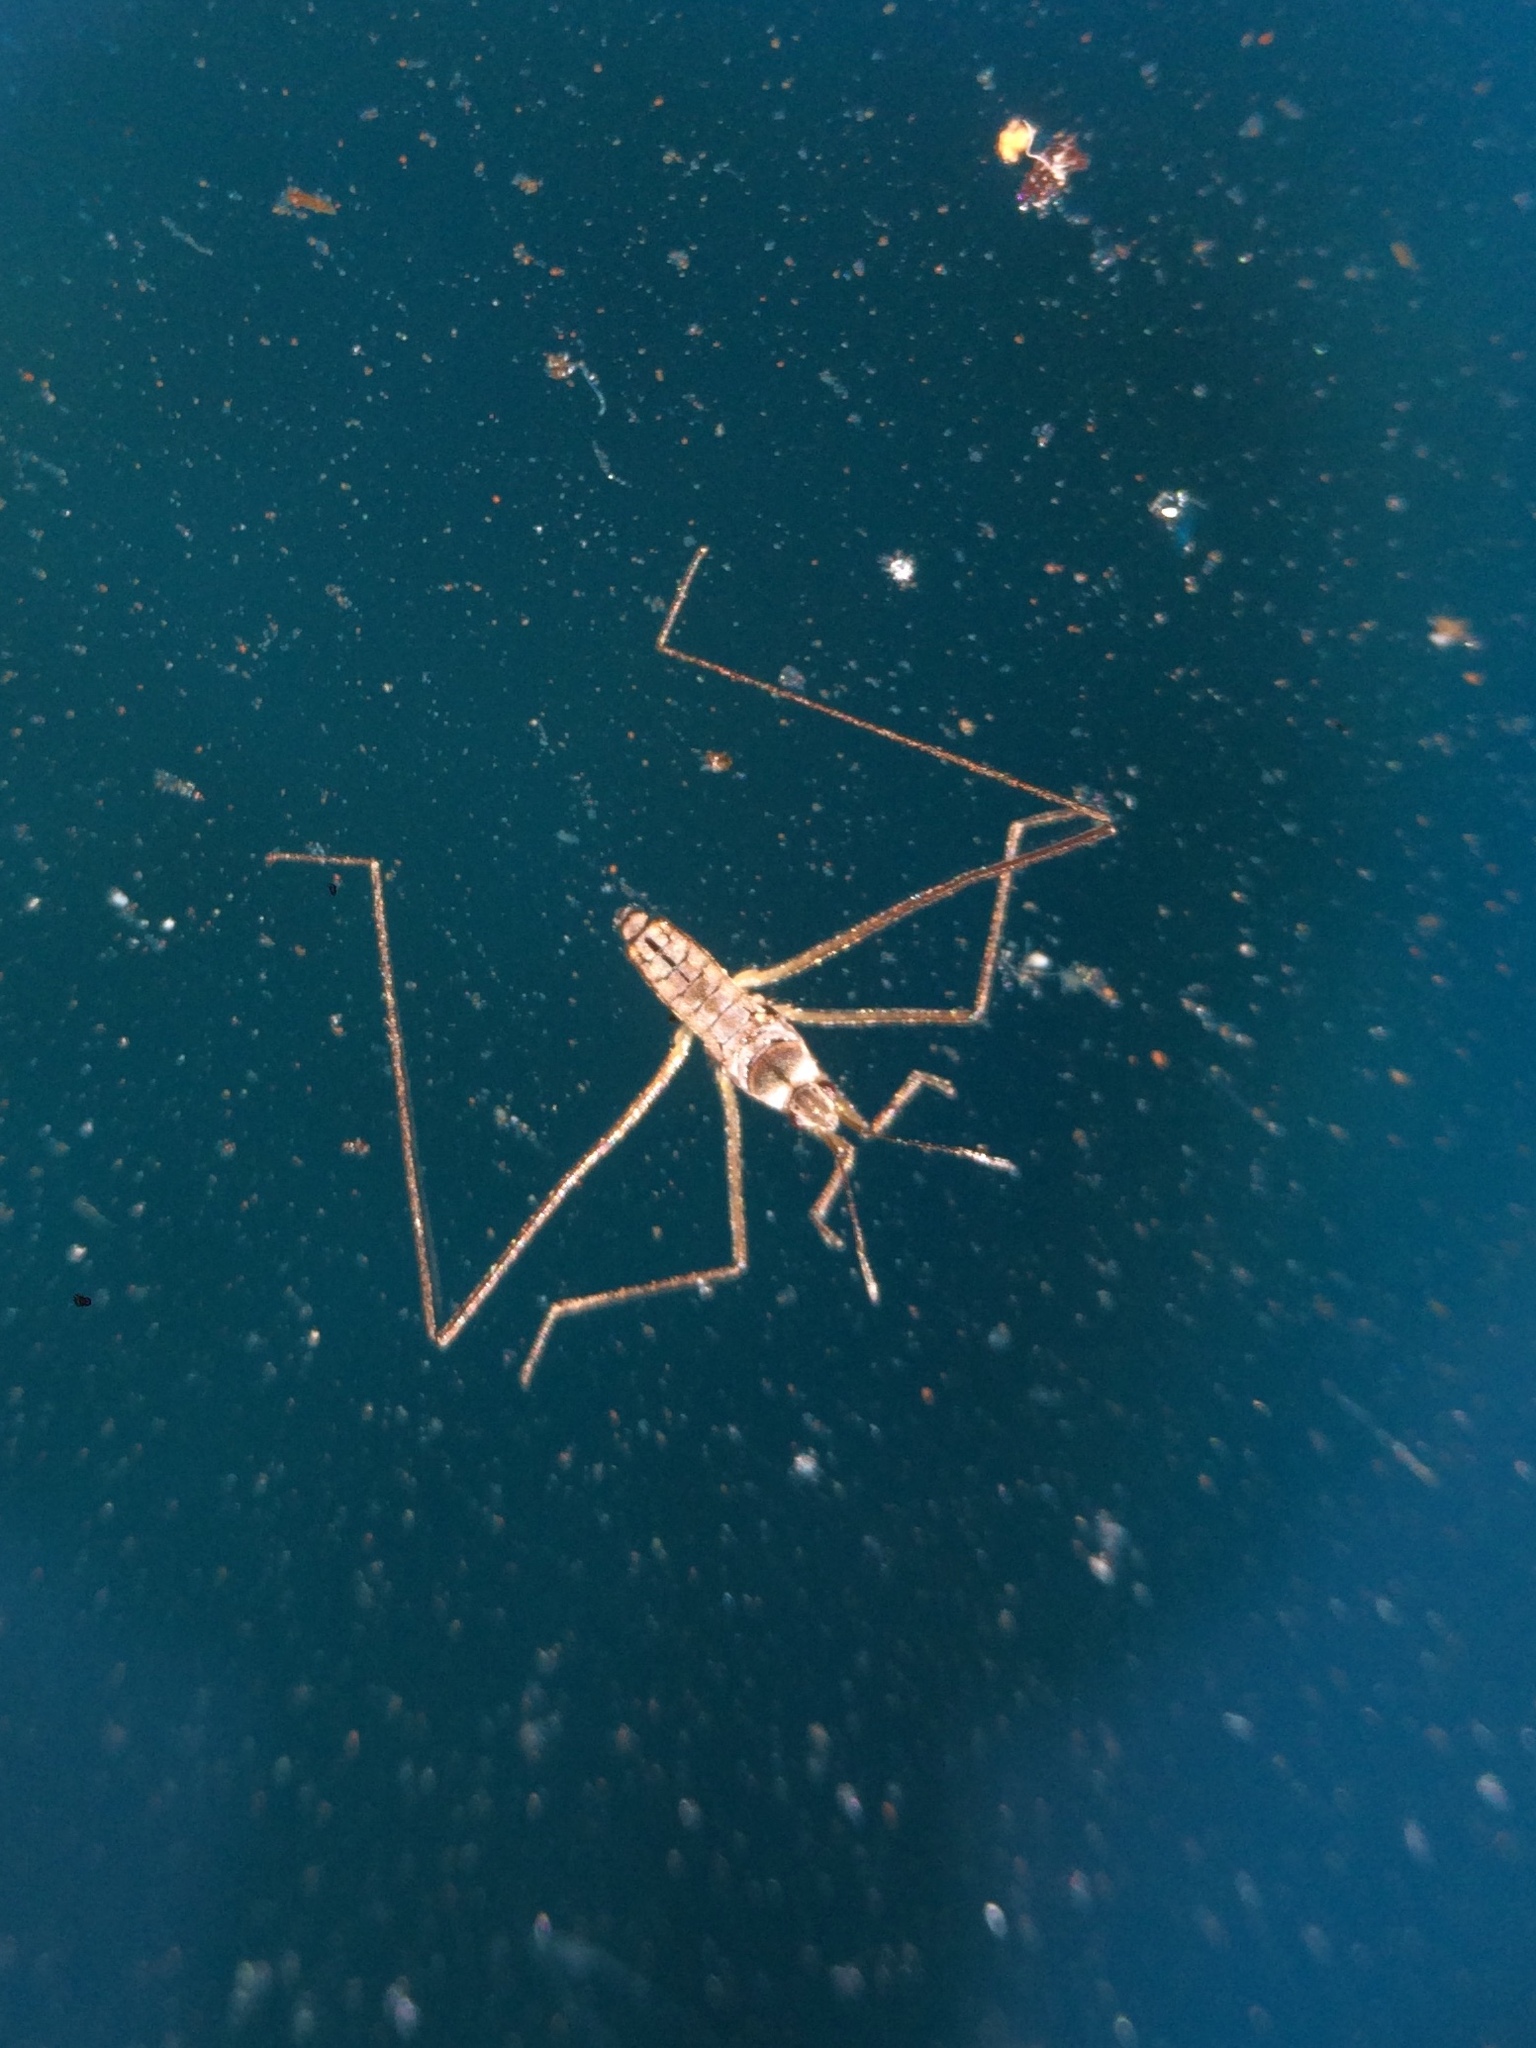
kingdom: Animalia
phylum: Arthropoda
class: Insecta
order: Hemiptera
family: Veliidae
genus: Microvelia
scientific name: Microvelia longipes
